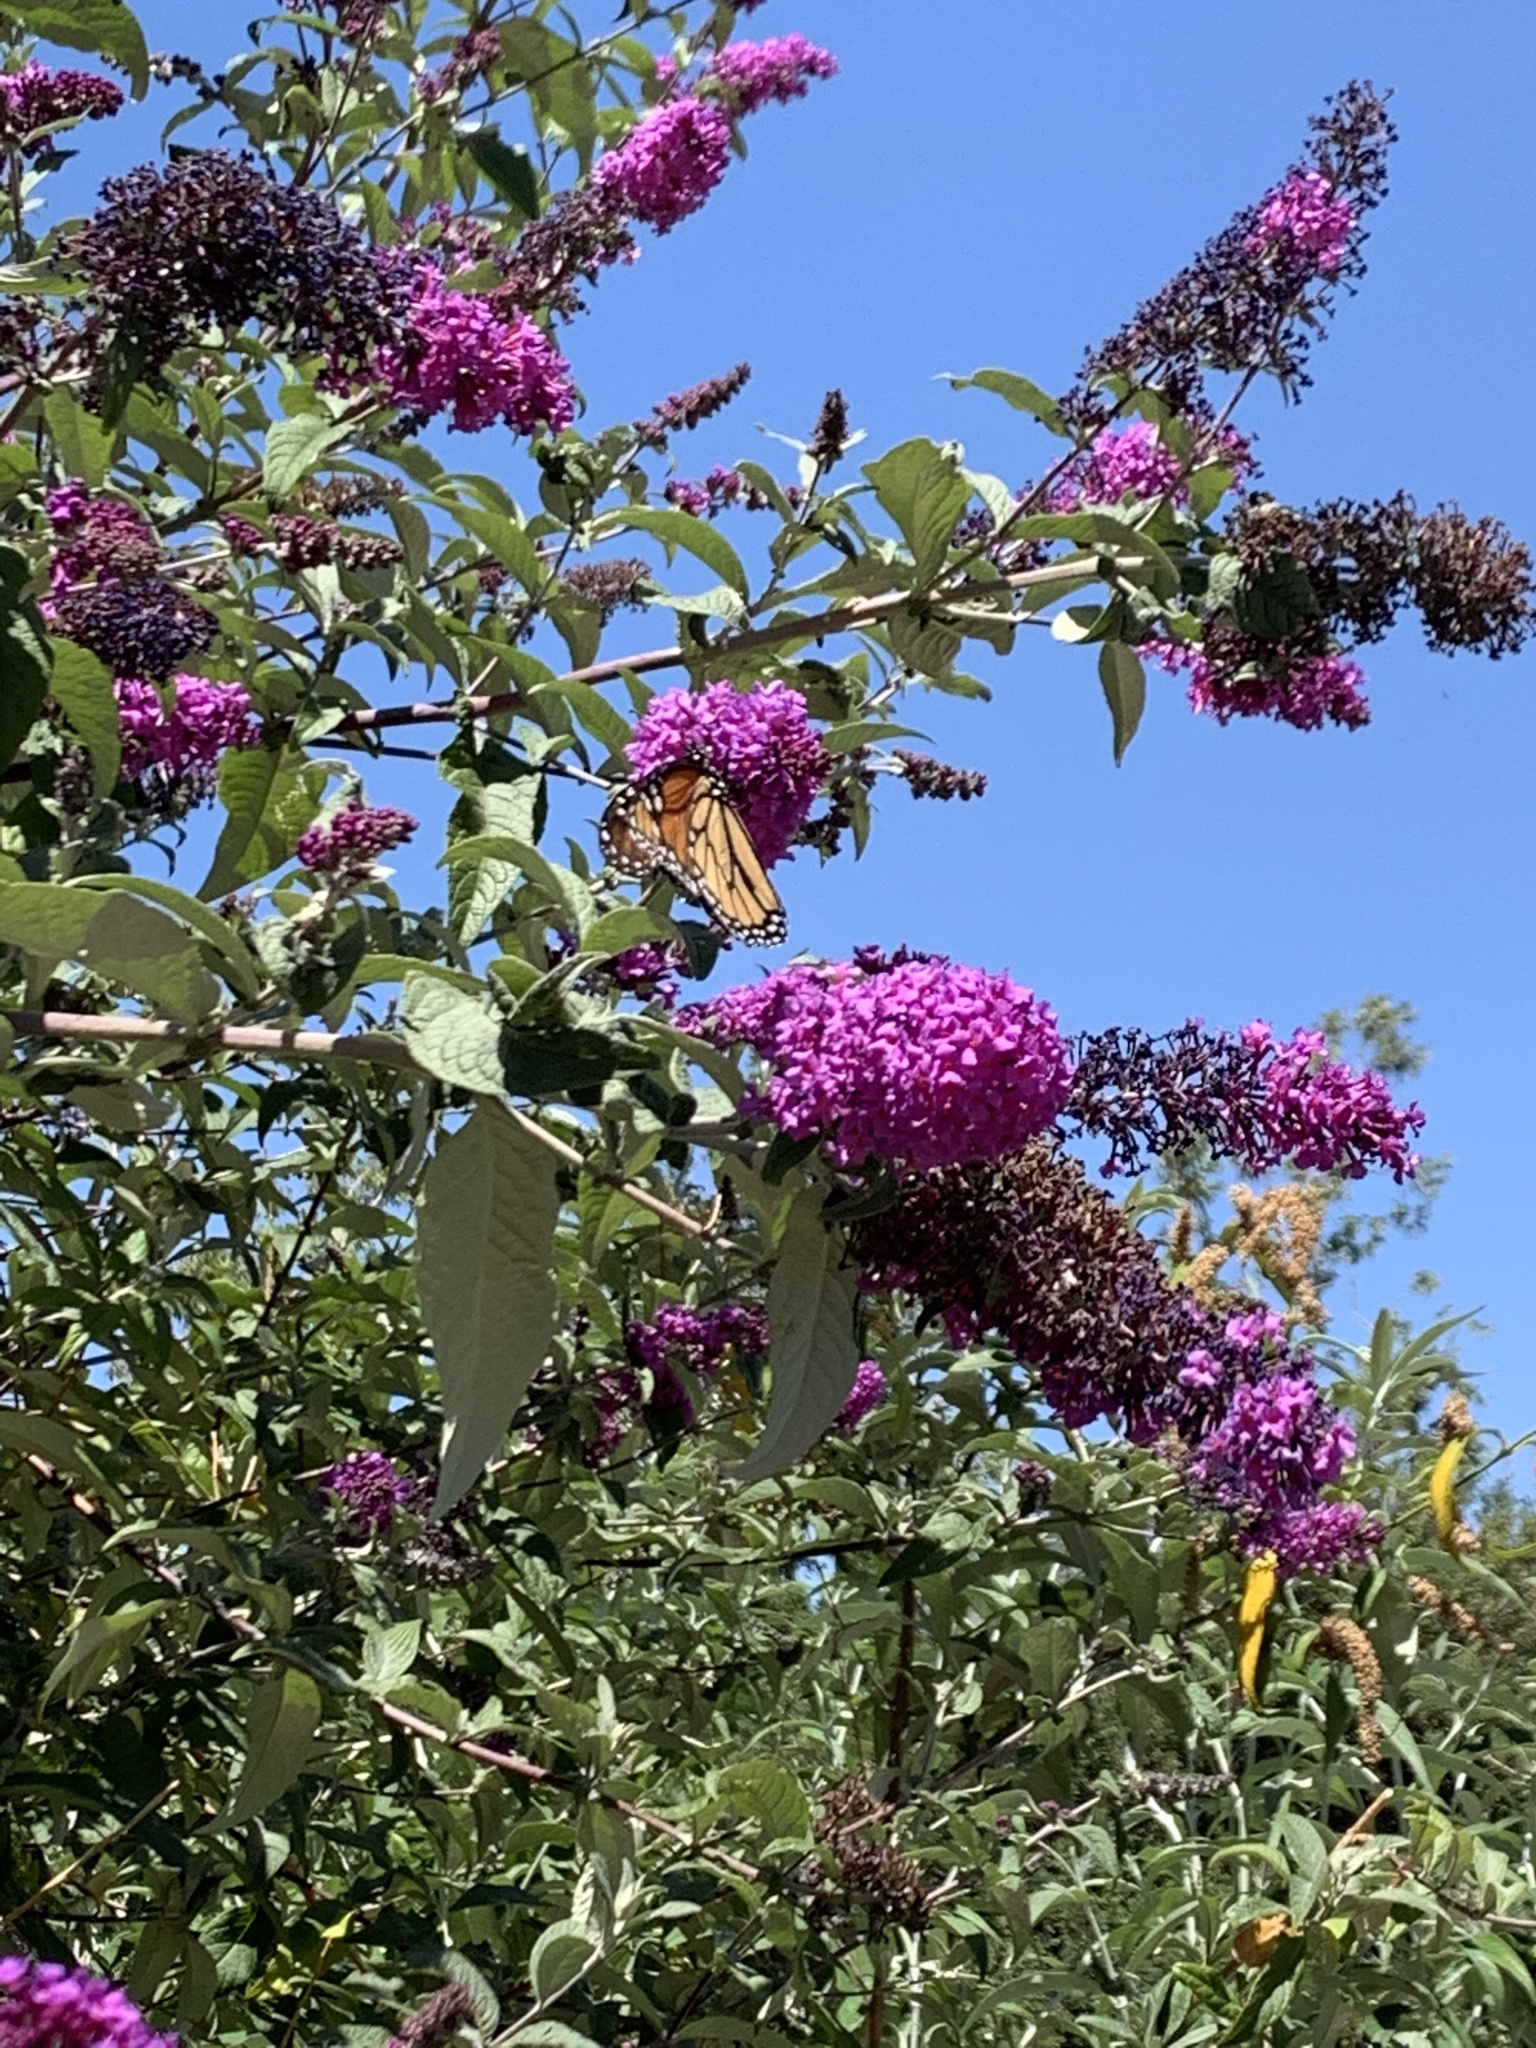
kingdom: Animalia
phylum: Arthropoda
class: Insecta
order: Lepidoptera
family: Nymphalidae
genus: Danaus
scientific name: Danaus plexippus
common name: Monarch
